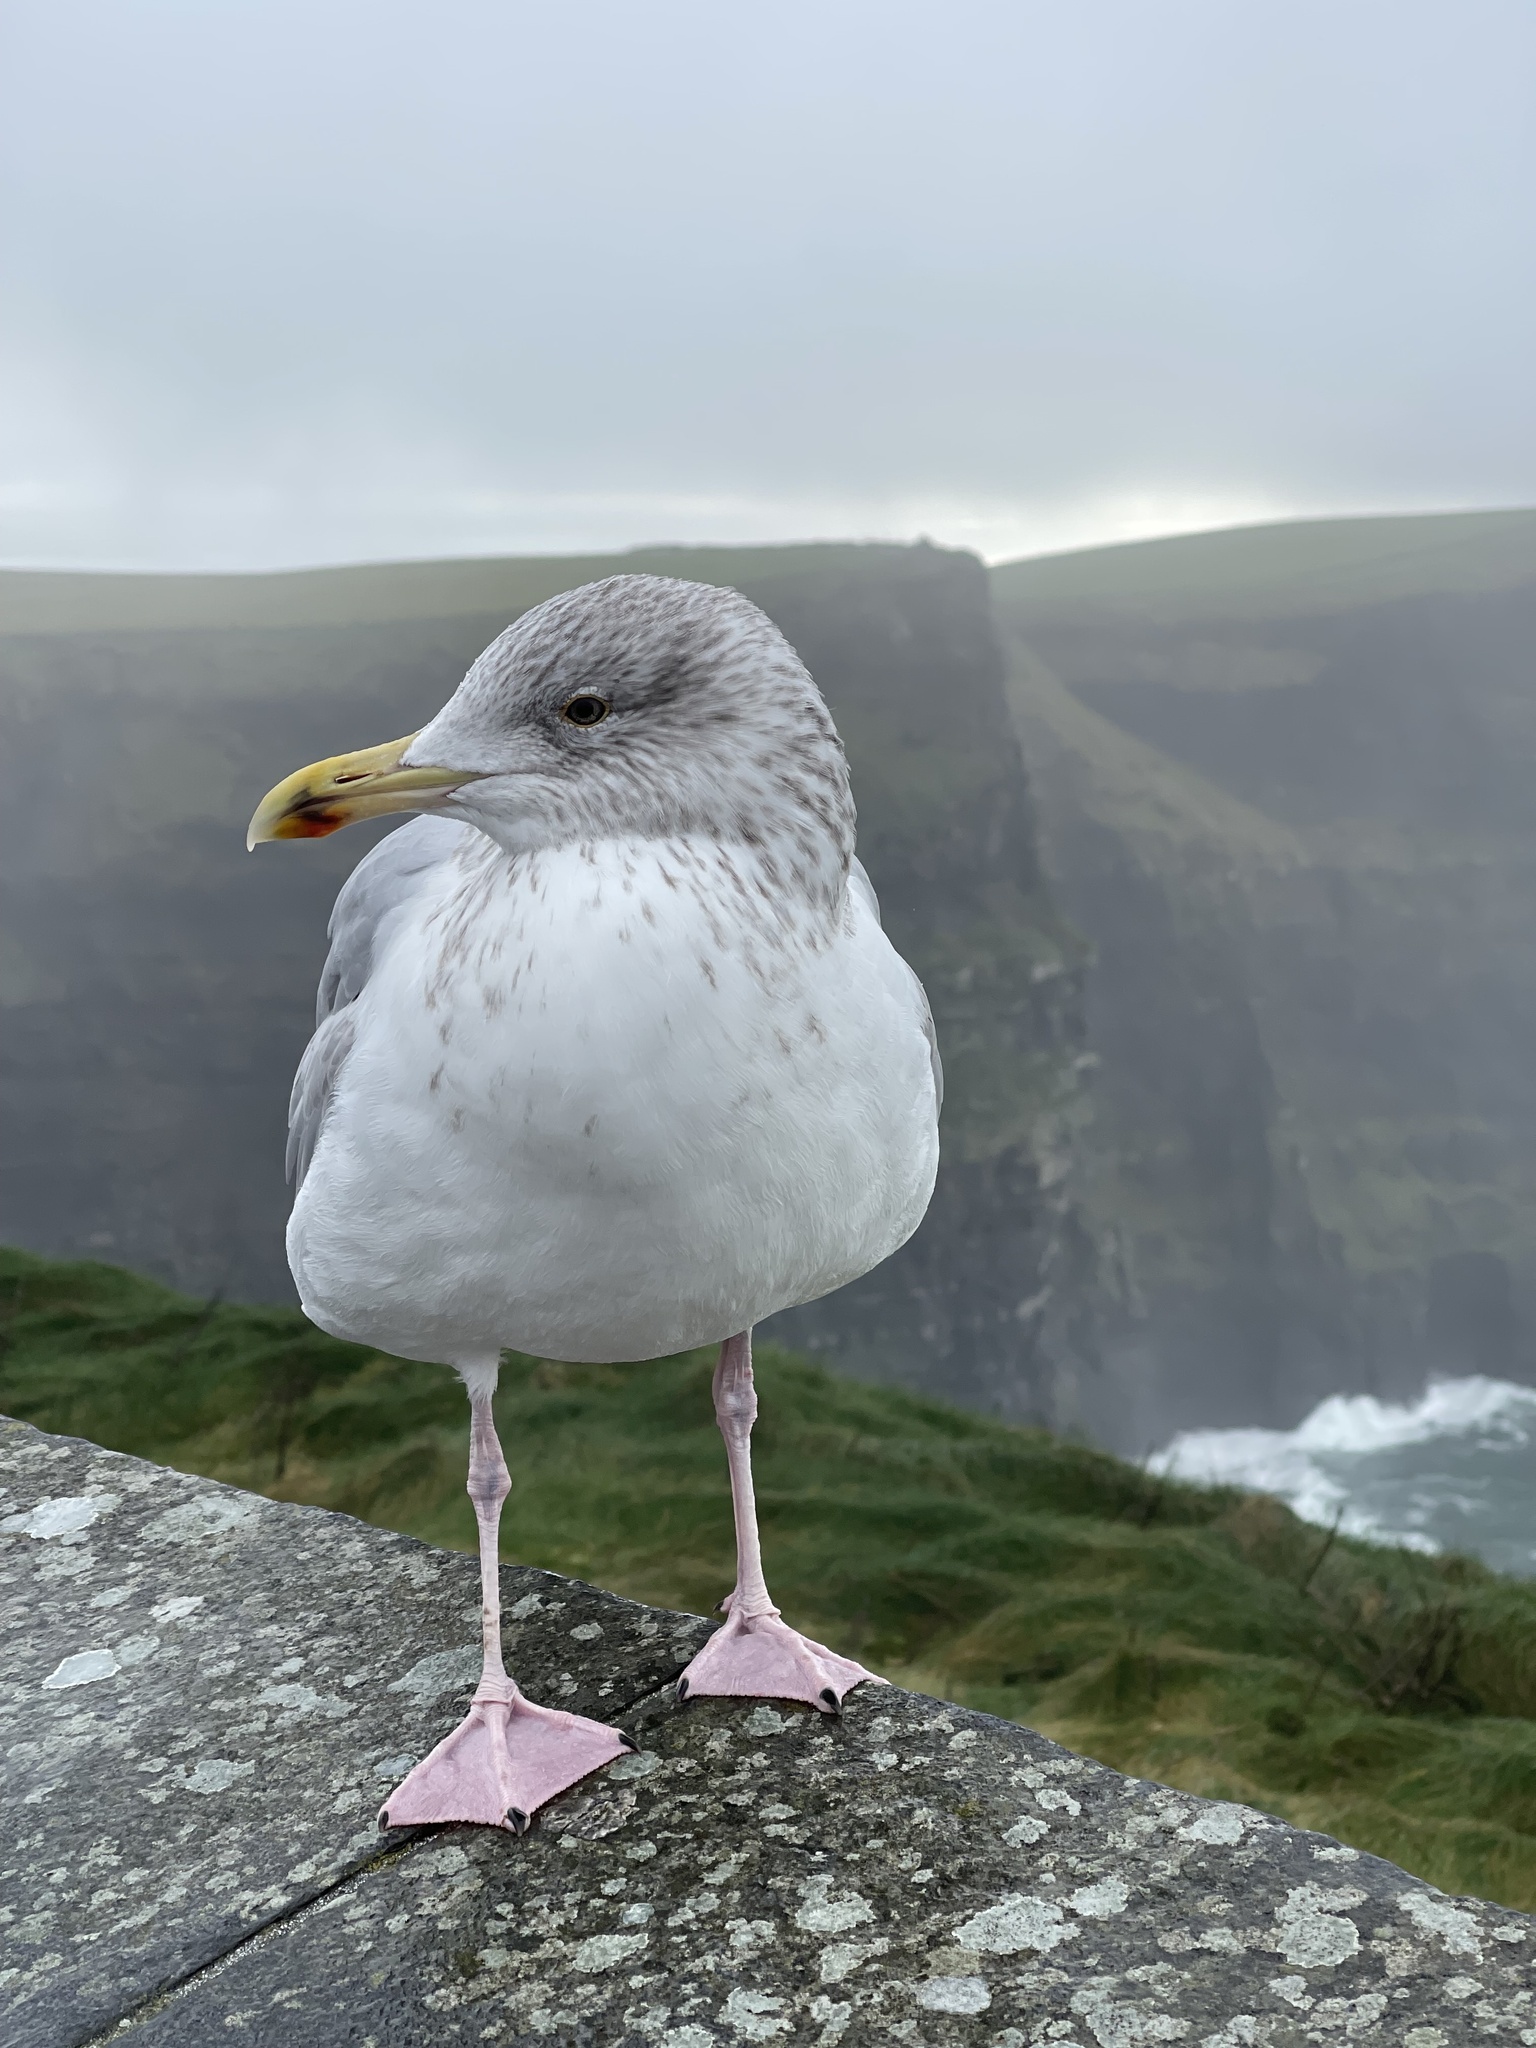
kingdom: Animalia
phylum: Chordata
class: Aves
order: Charadriiformes
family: Laridae
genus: Larus
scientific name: Larus argentatus
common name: Herring gull
